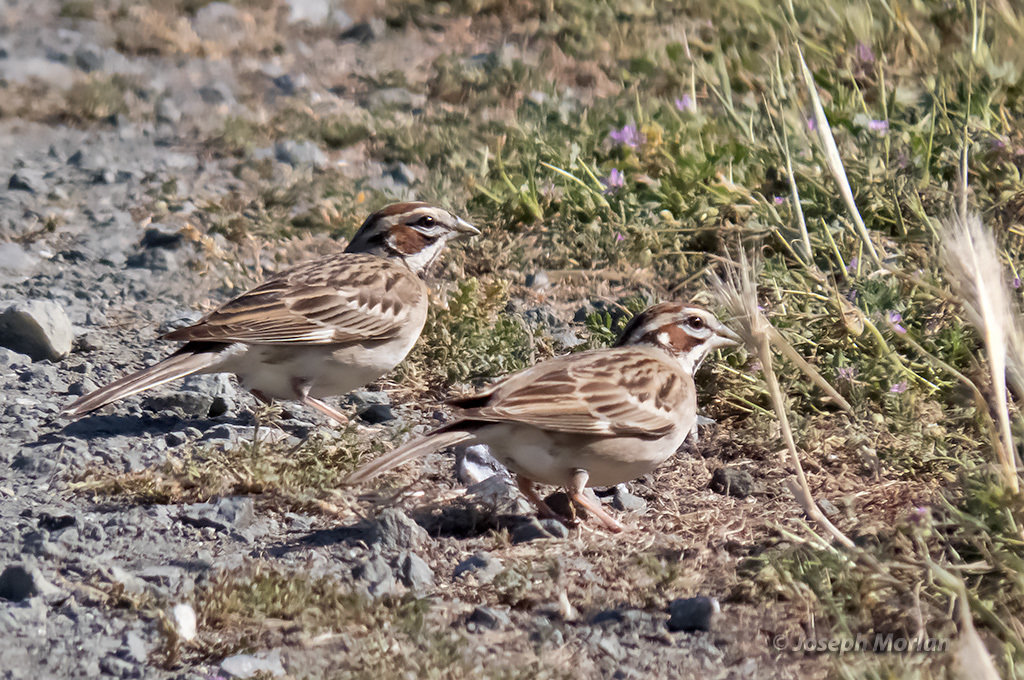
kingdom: Animalia
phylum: Chordata
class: Aves
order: Passeriformes
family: Passerellidae
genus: Chondestes
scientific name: Chondestes grammacus
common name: Lark sparrow
